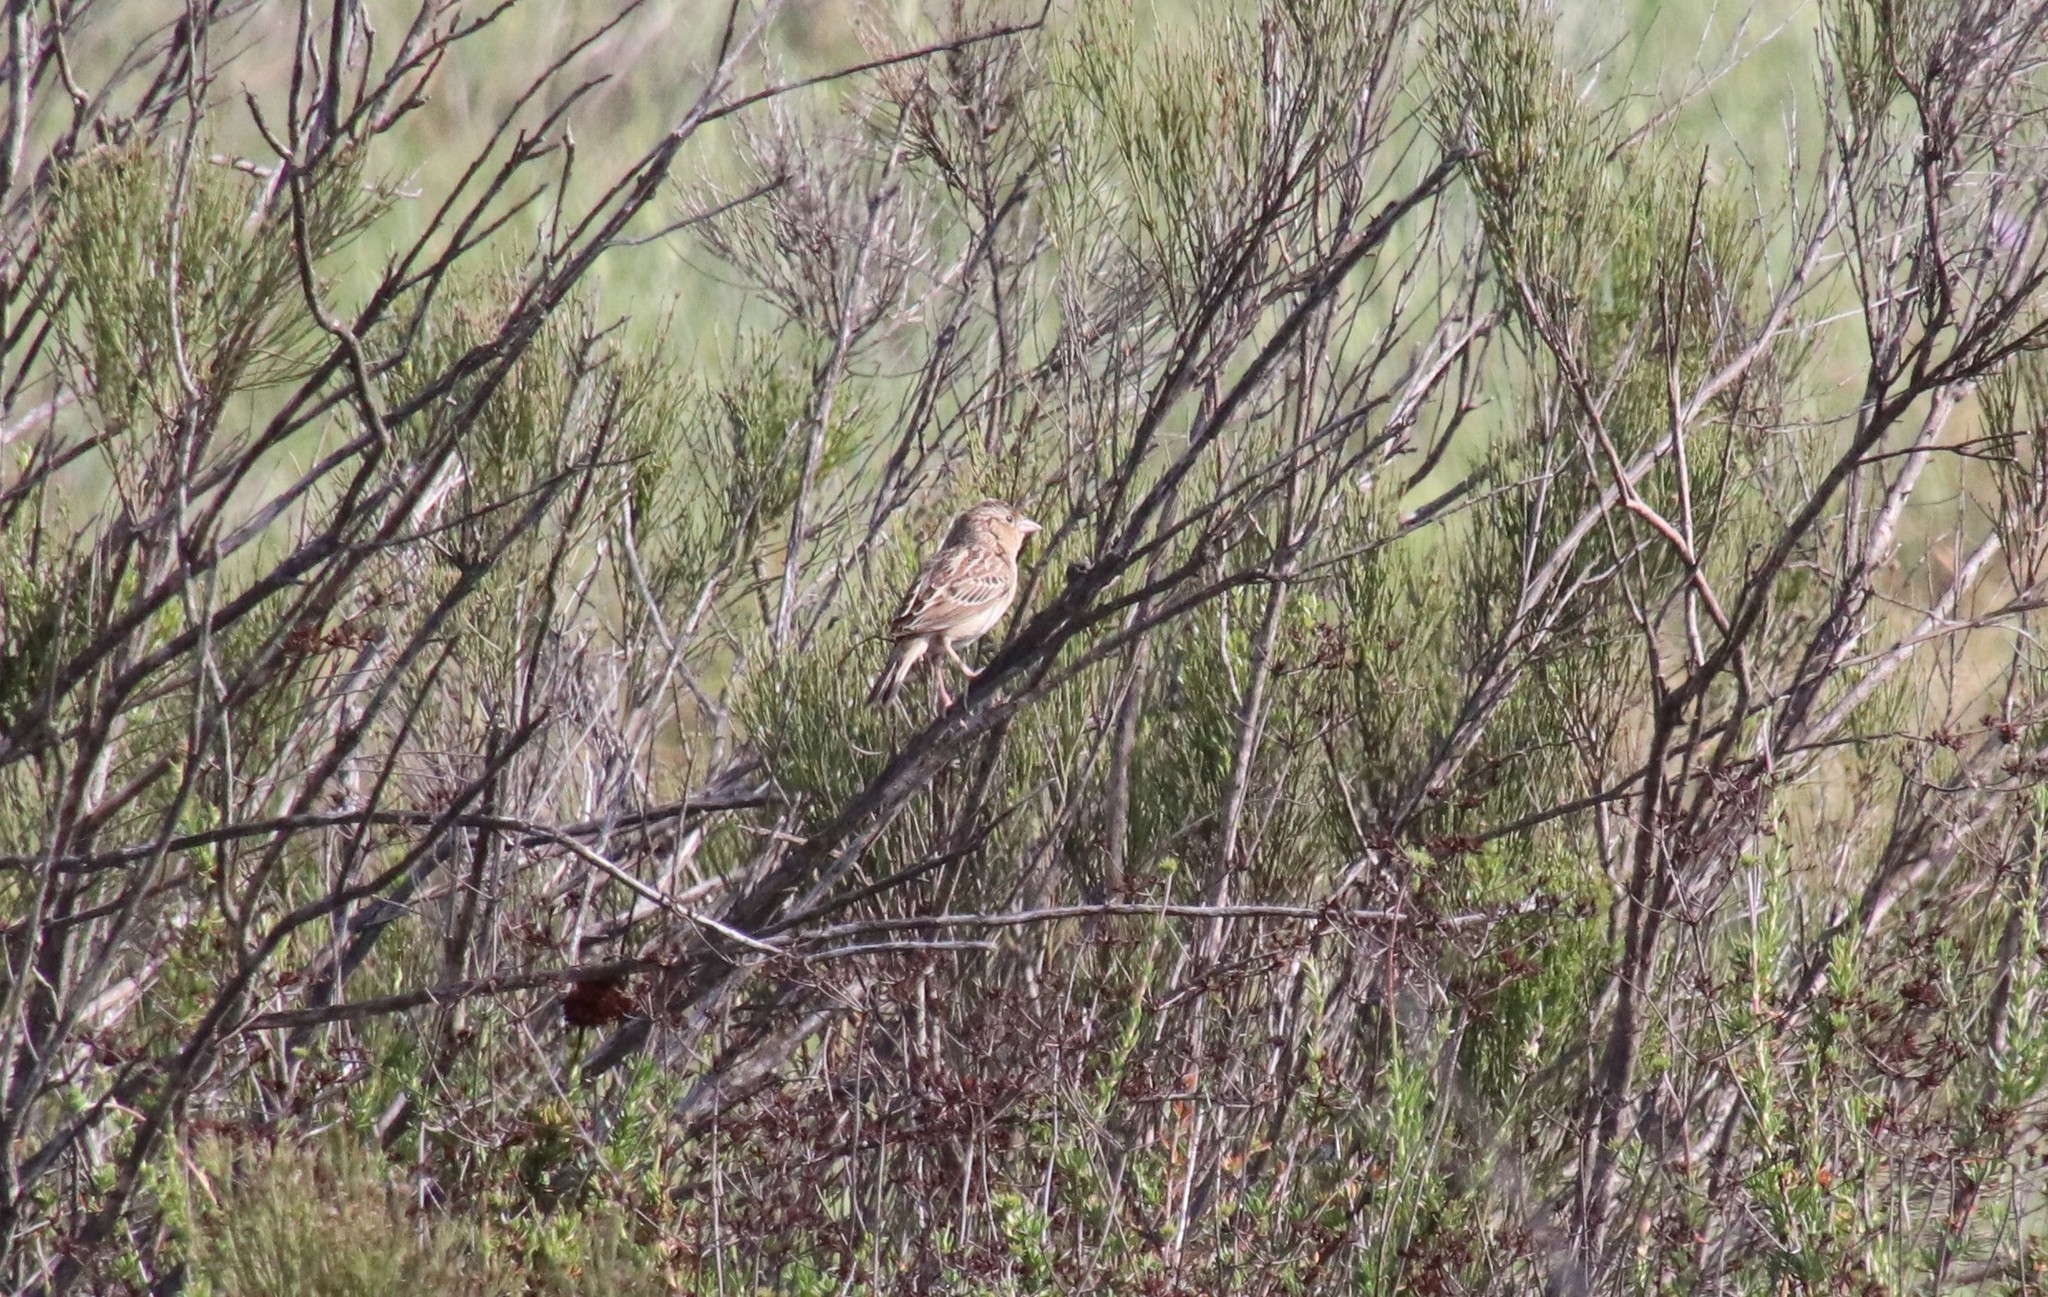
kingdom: Animalia
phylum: Chordata
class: Aves
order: Passeriformes
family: Passerellidae
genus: Ammodramus
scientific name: Ammodramus savannarum
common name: Grasshopper sparrow
